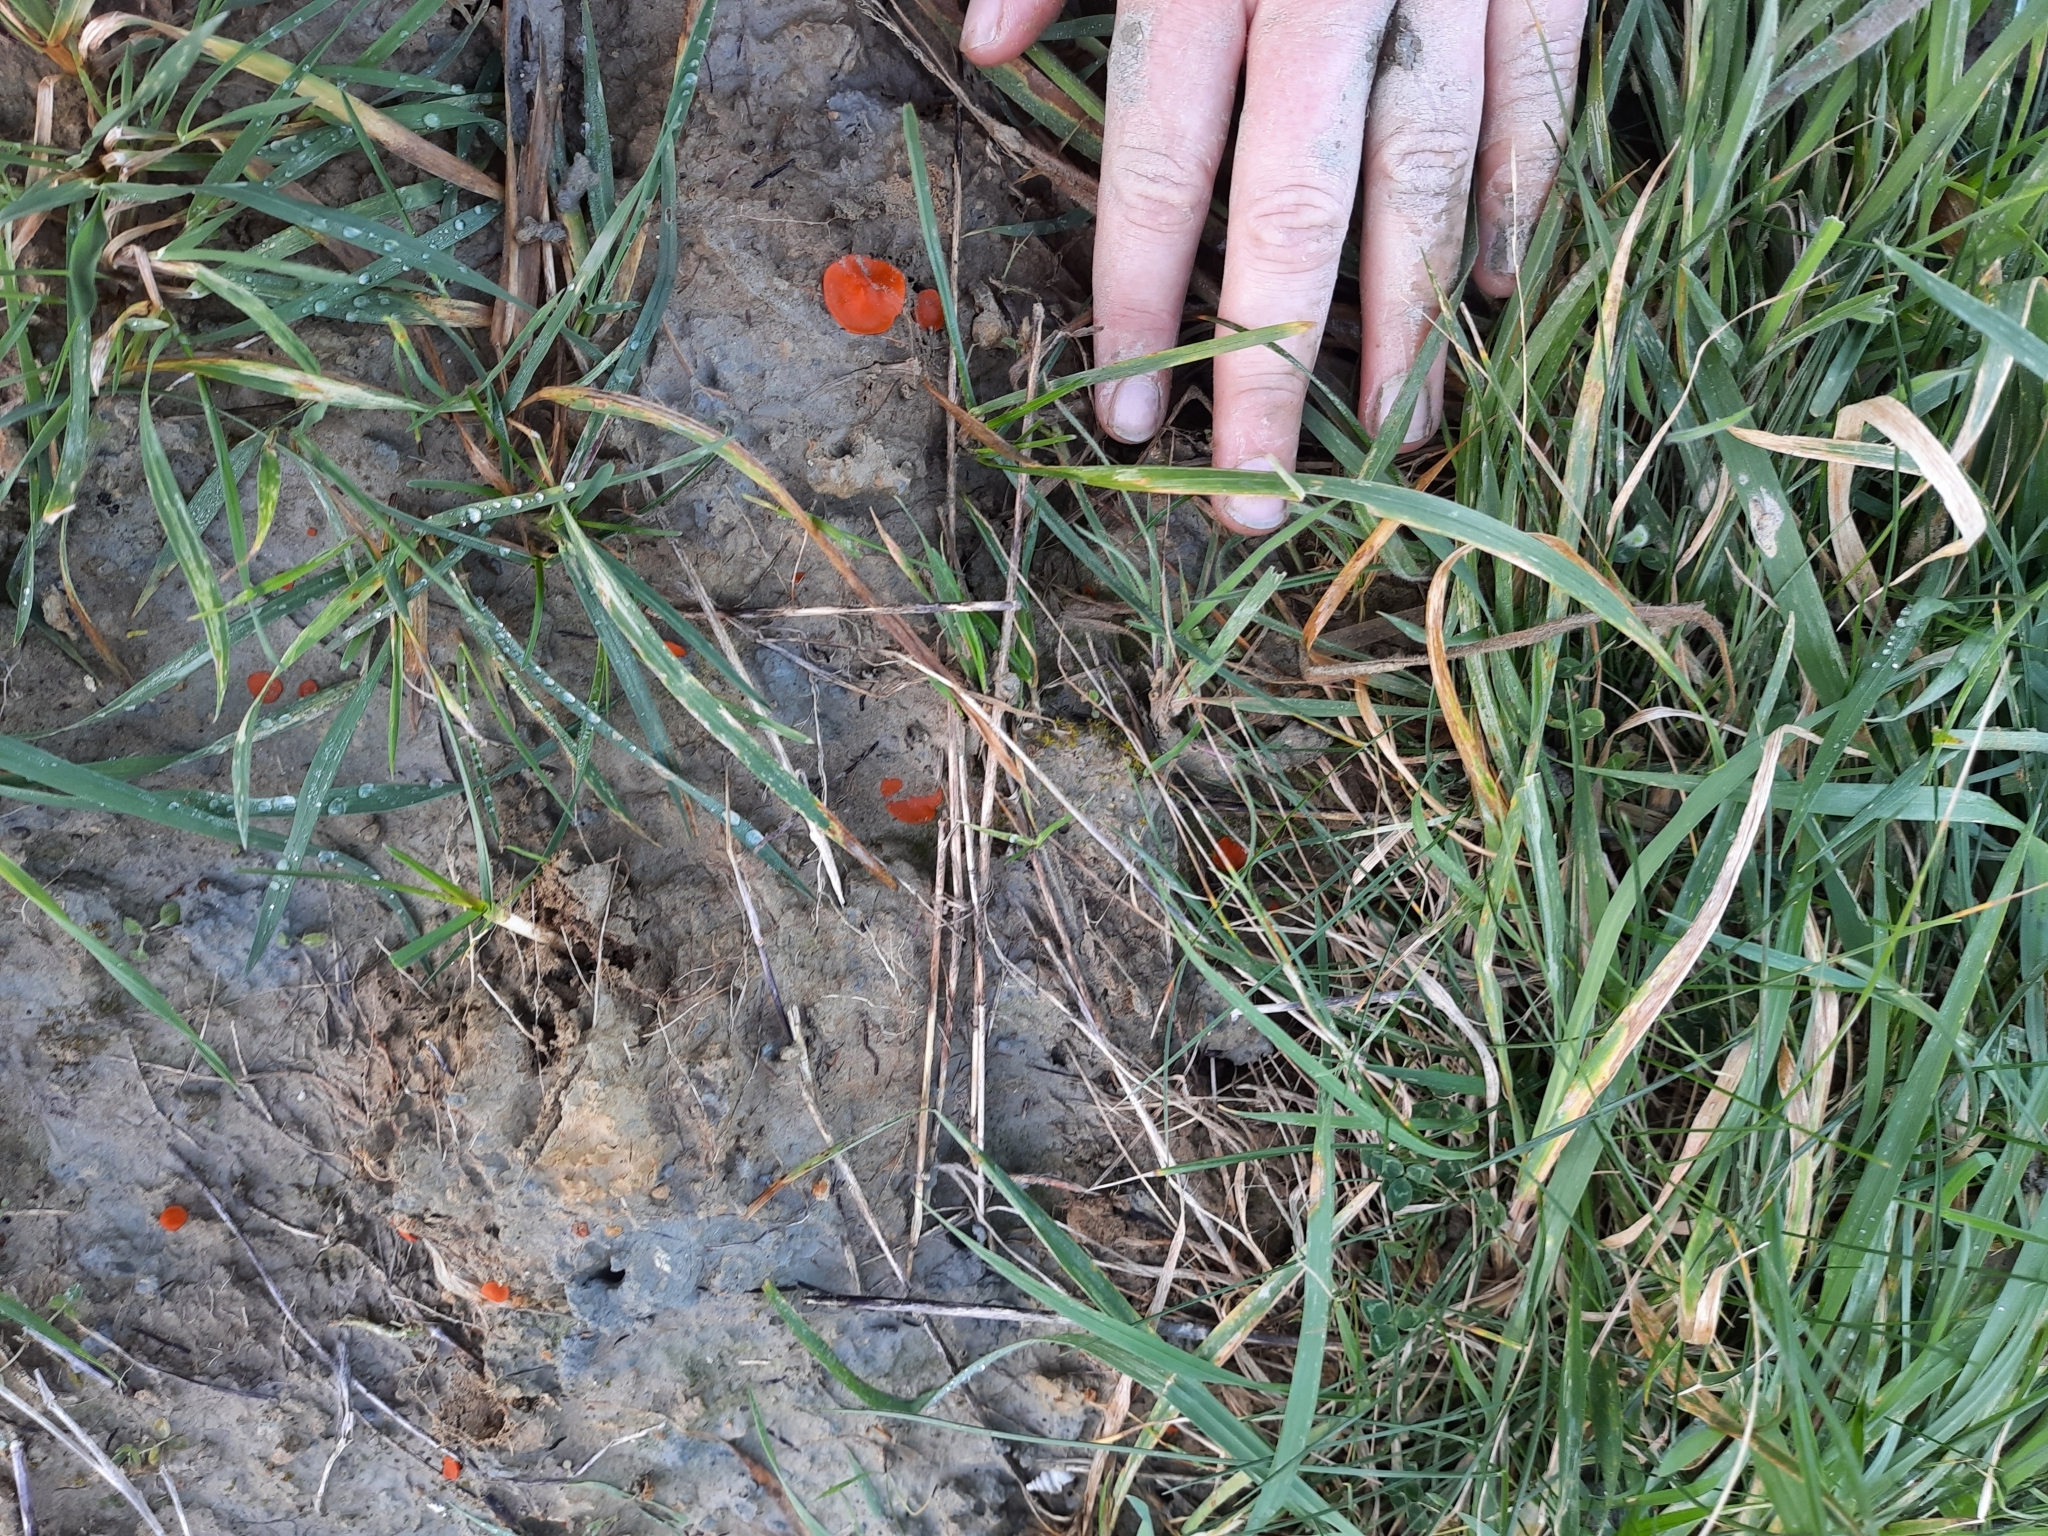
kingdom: Fungi
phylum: Ascomycota
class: Pezizomycetes
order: Pezizales
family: Pyronemataceae
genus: Aleuria
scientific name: Aleuria aurantia
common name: Orange peel fungus
